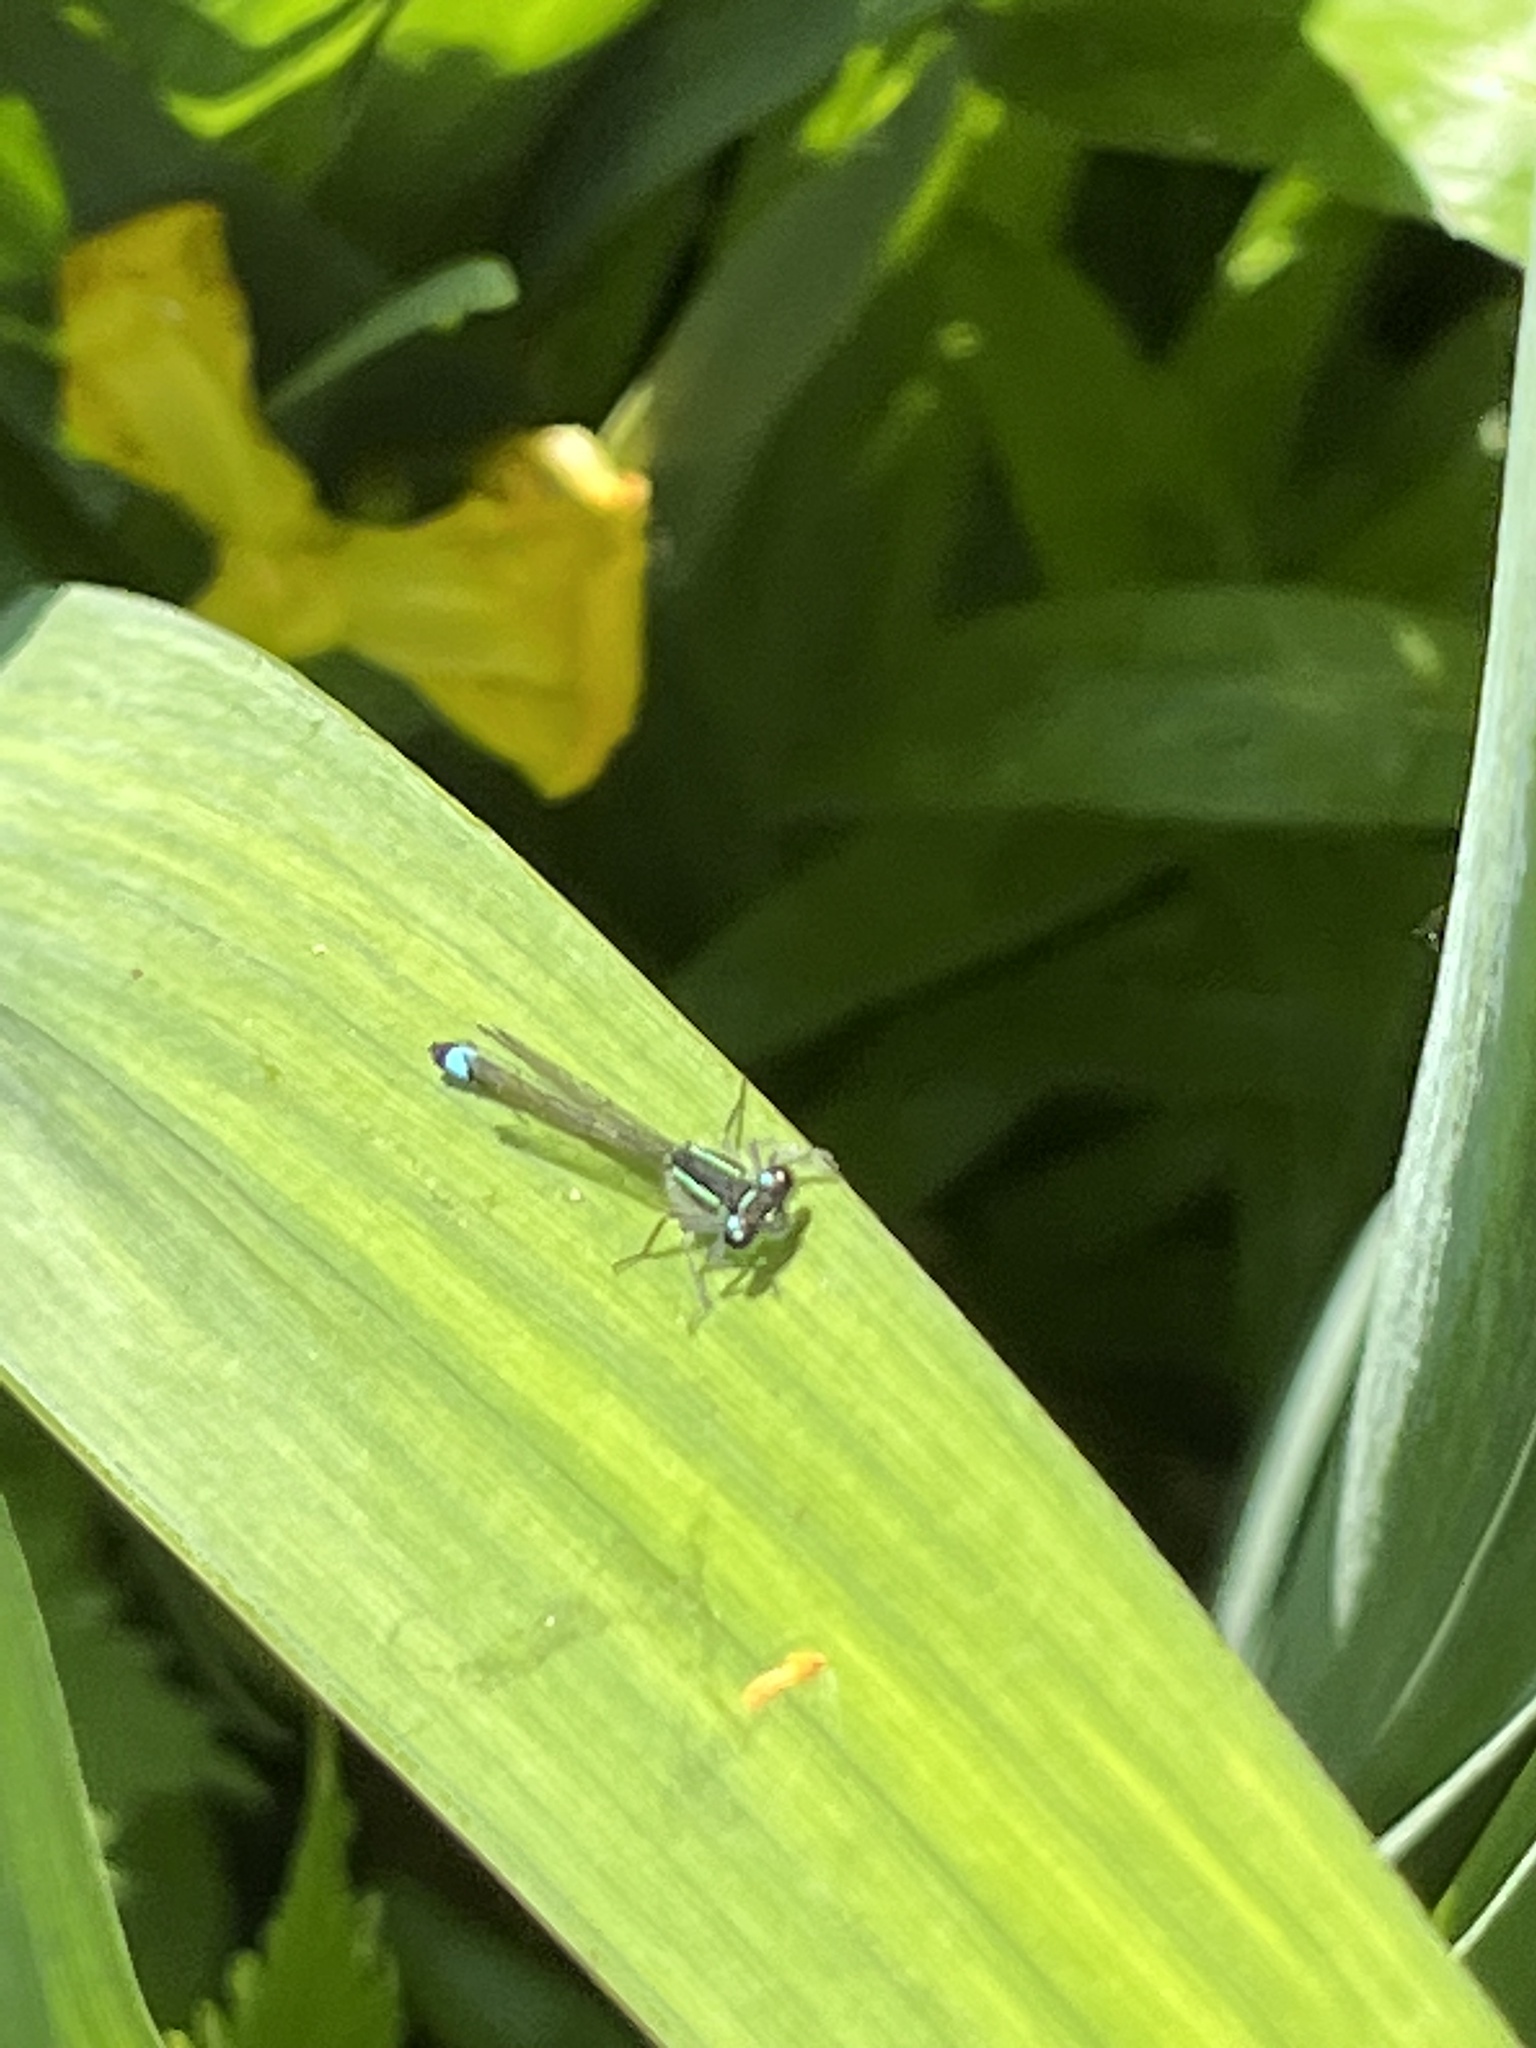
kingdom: Animalia
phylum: Arthropoda
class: Insecta
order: Odonata
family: Coenagrionidae
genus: Ischnura
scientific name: Ischnura elegans
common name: Blue-tailed damselfly
